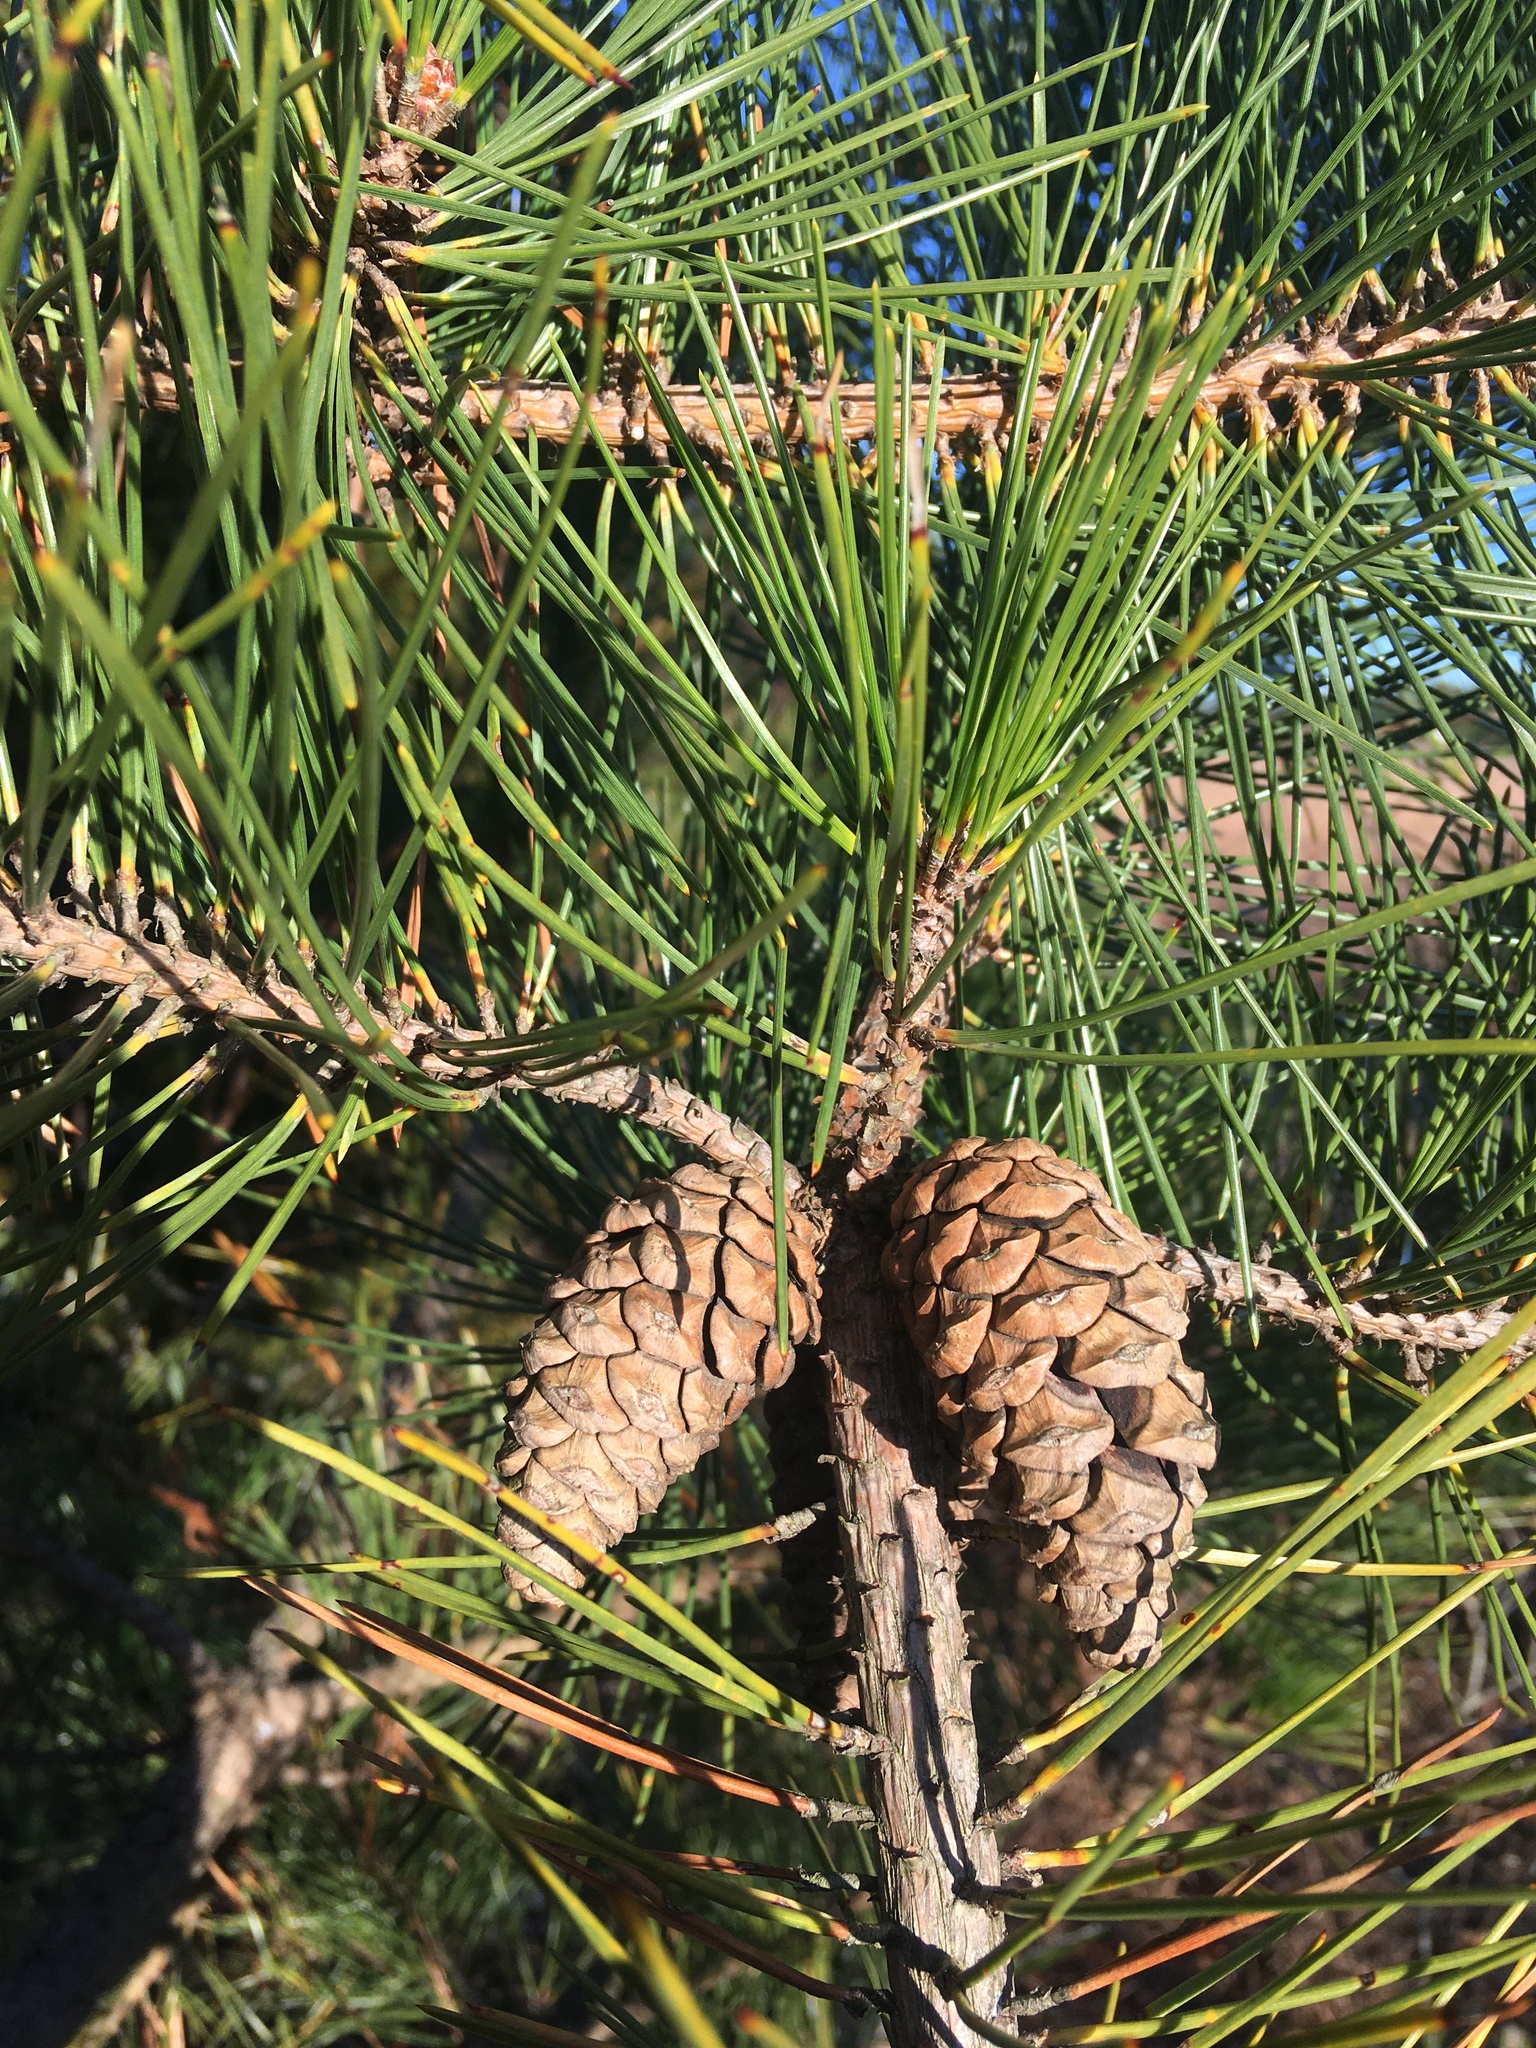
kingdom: Plantae
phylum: Tracheophyta
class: Pinopsida
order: Pinales
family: Pinaceae
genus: Pinus
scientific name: Pinus resinosa
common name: Norway pine
